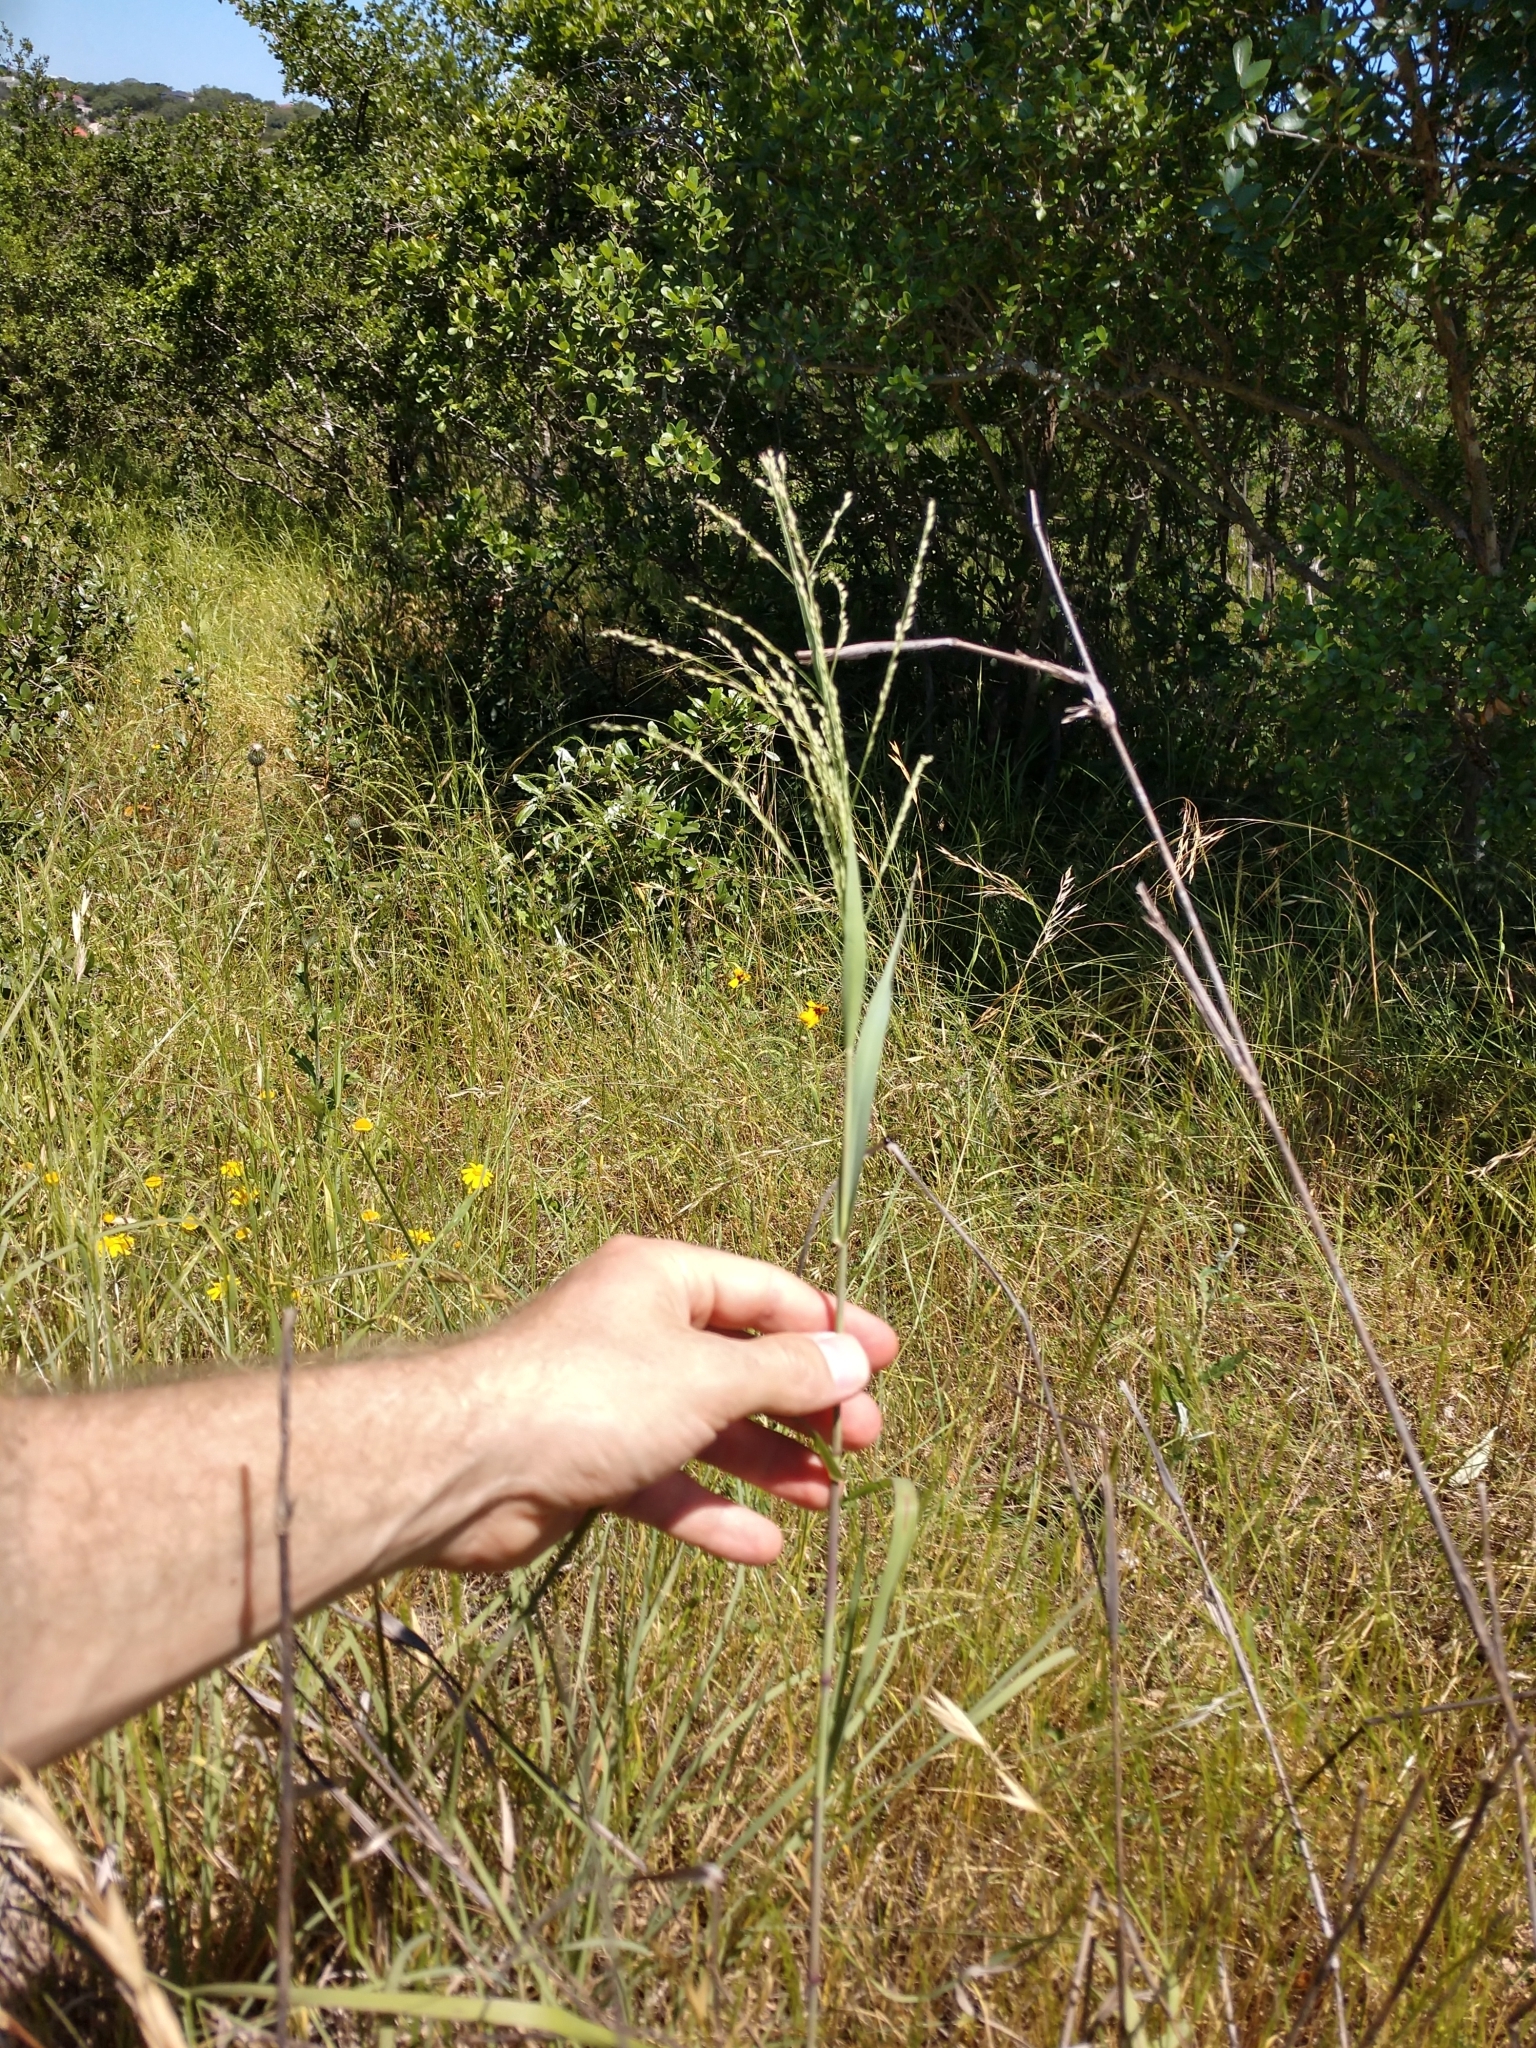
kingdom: Plantae
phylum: Tracheophyta
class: Liliopsida
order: Poales
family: Poaceae
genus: Panicum
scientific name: Panicum coloratum
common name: Kleingrass
